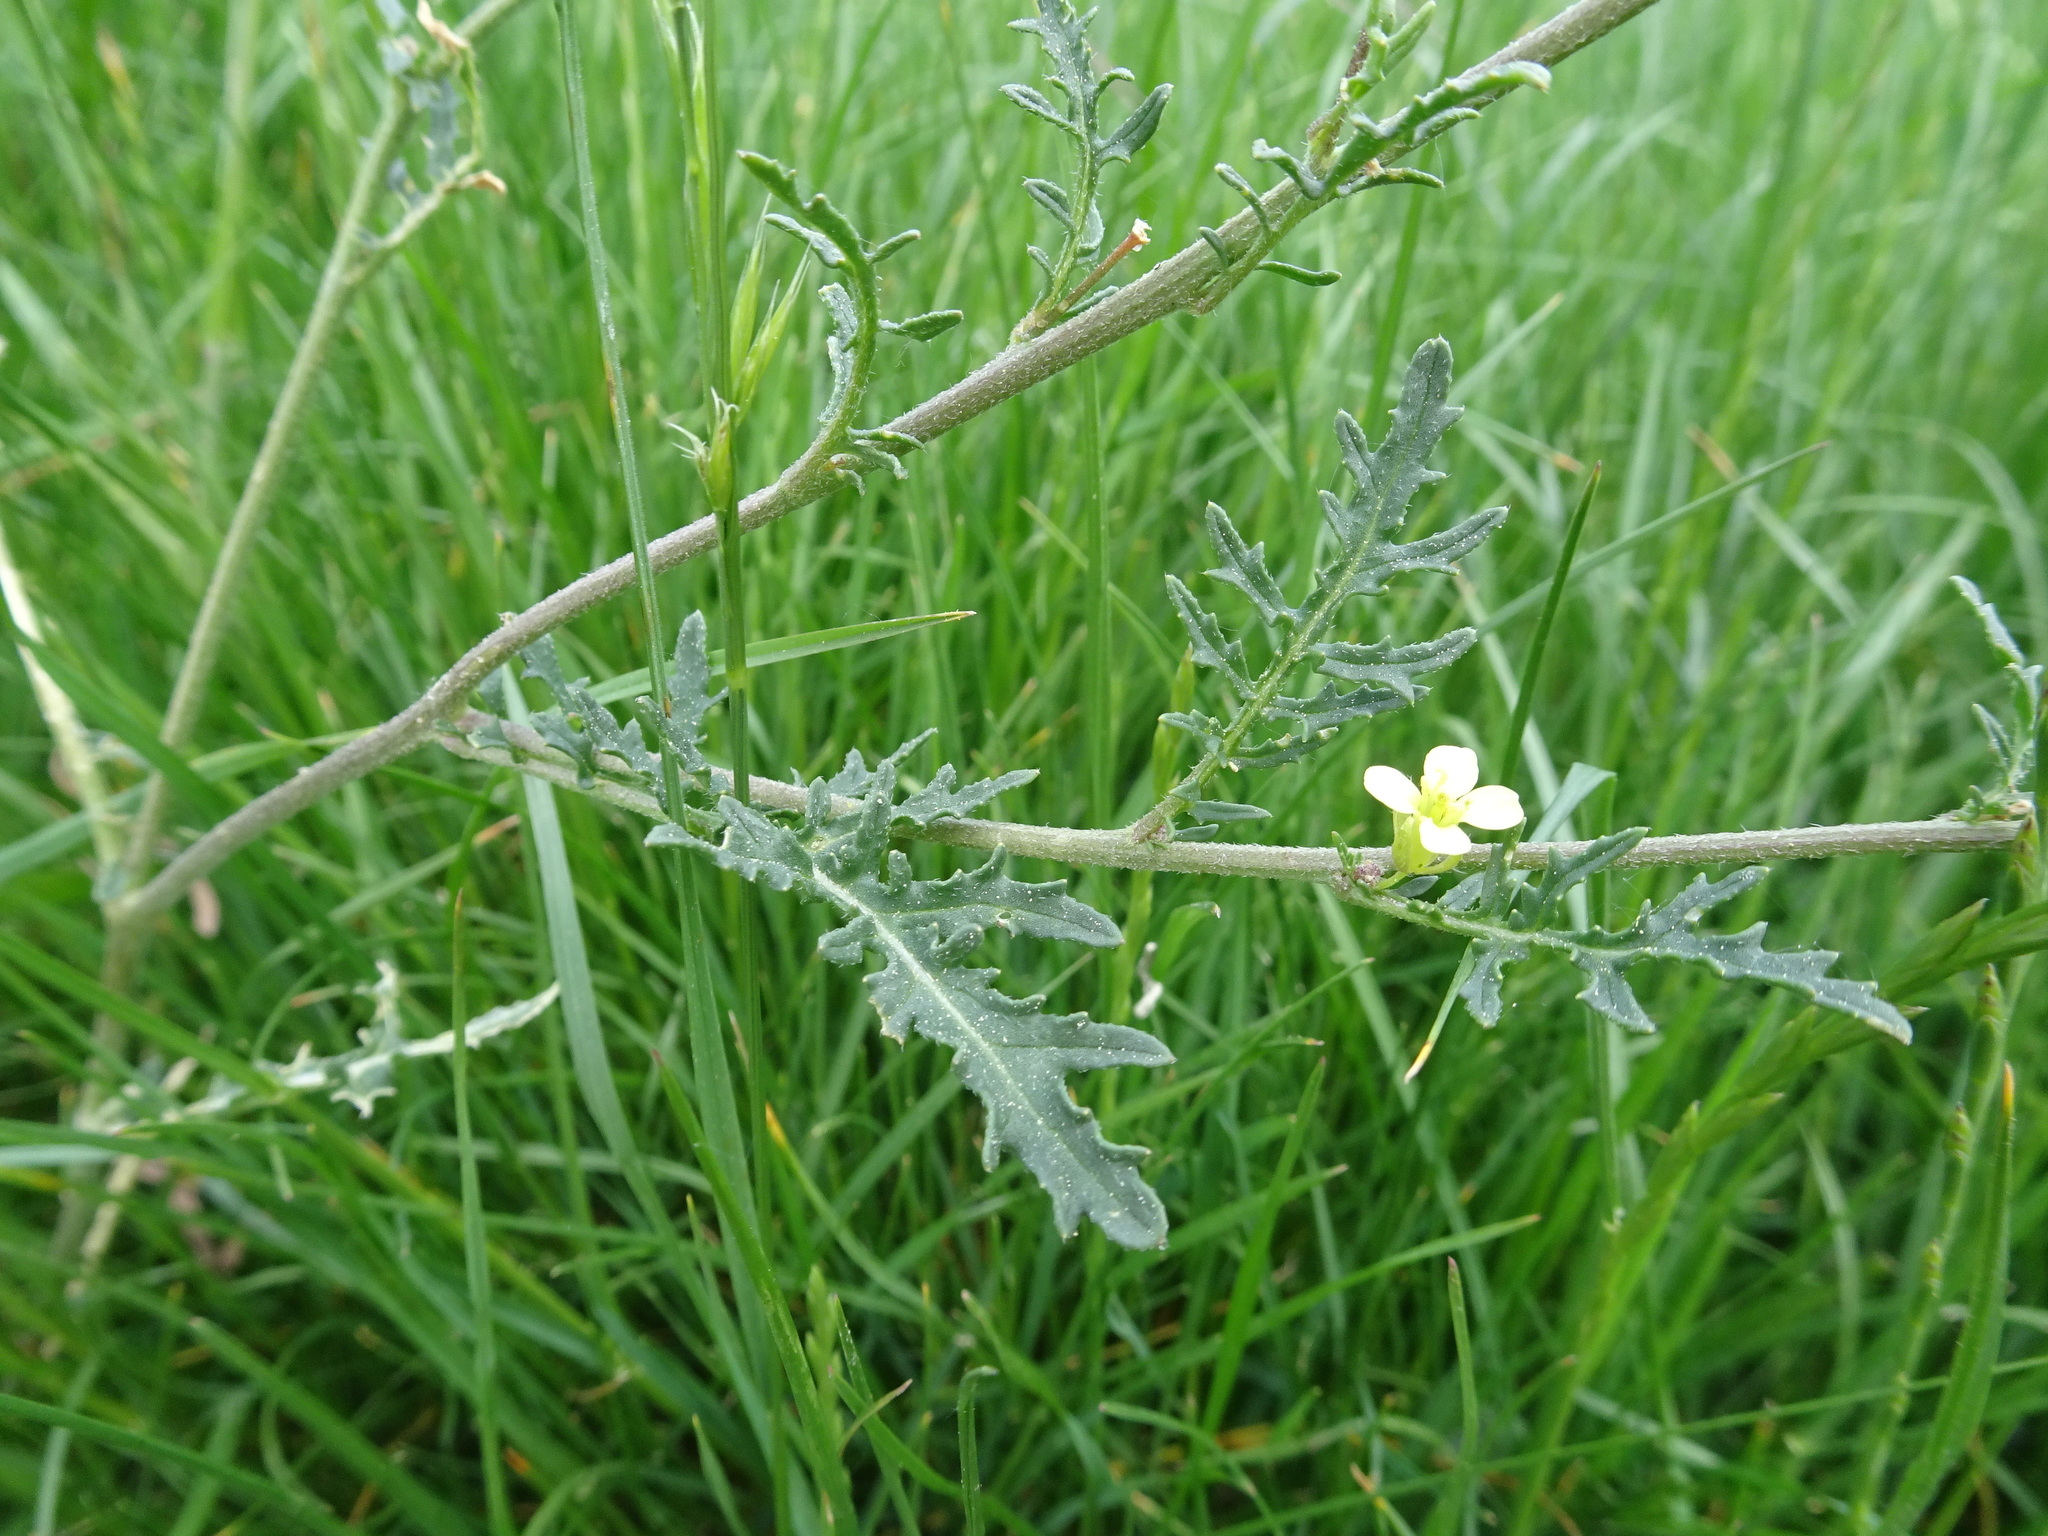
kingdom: Plantae
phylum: Tracheophyta
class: Magnoliopsida
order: Brassicales
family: Brassicaceae
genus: Erucastrum
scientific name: Erucastrum gallicum
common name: Hairy rocket
